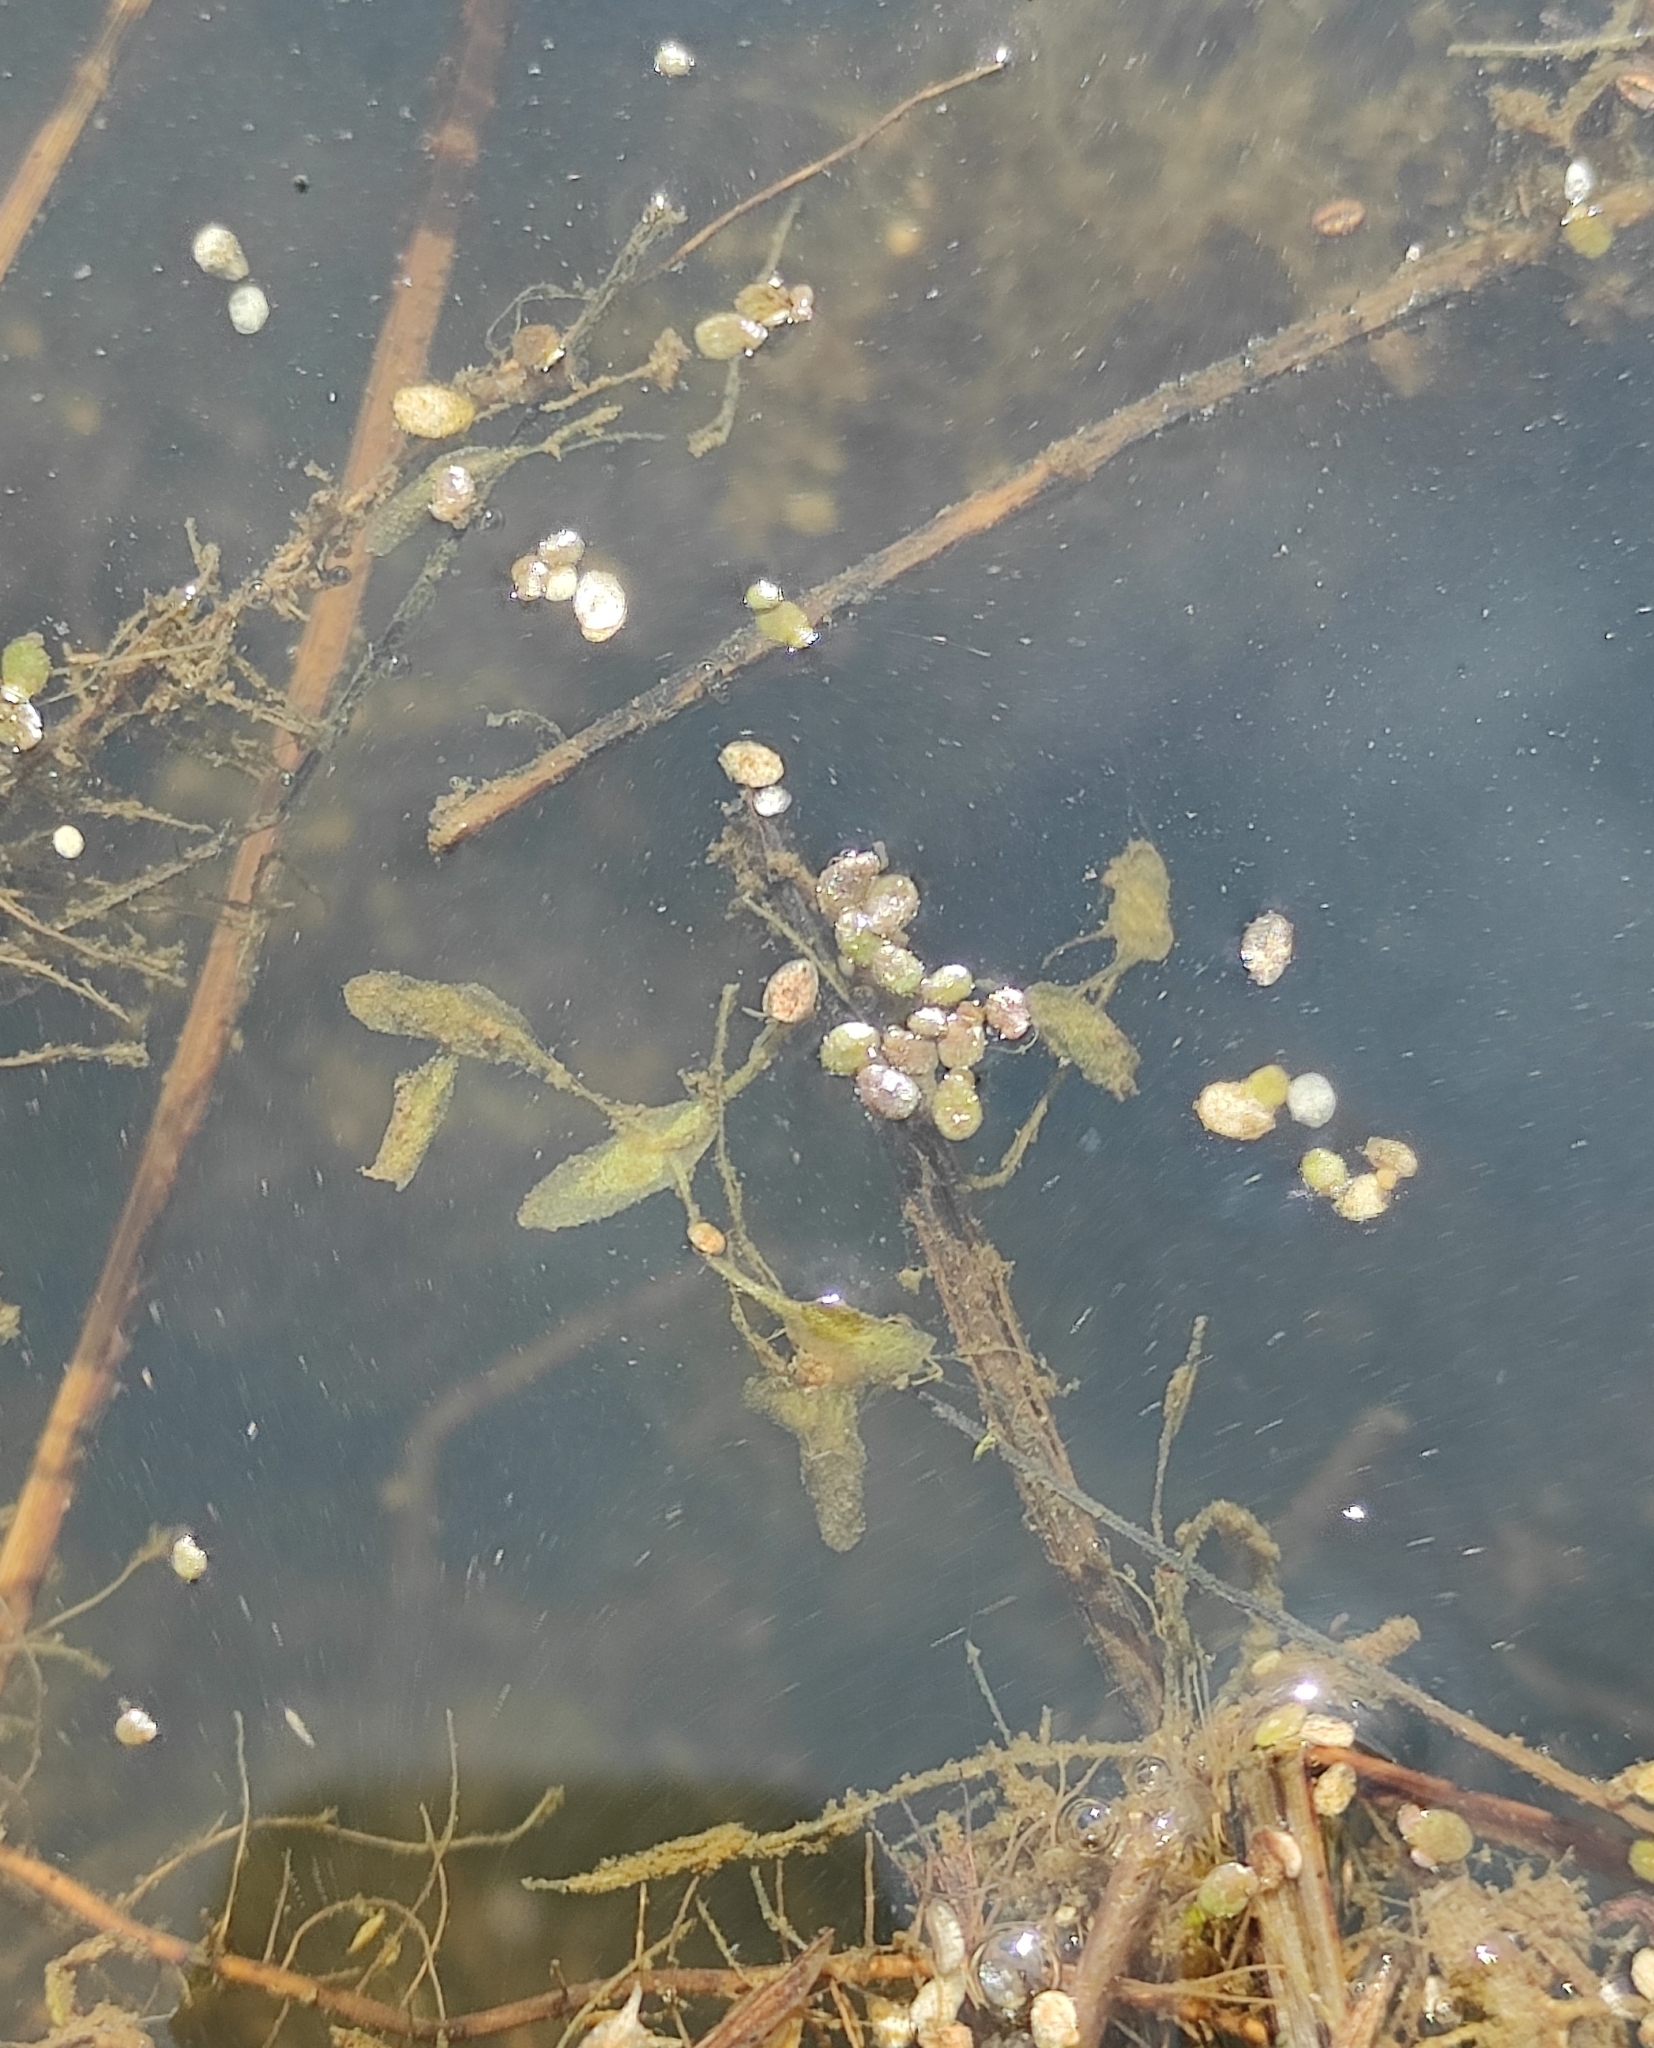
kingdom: Plantae
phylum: Tracheophyta
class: Liliopsida
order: Alismatales
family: Araceae
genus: Lemna
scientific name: Lemna trisulca
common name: Ivy-leaved duckweed
